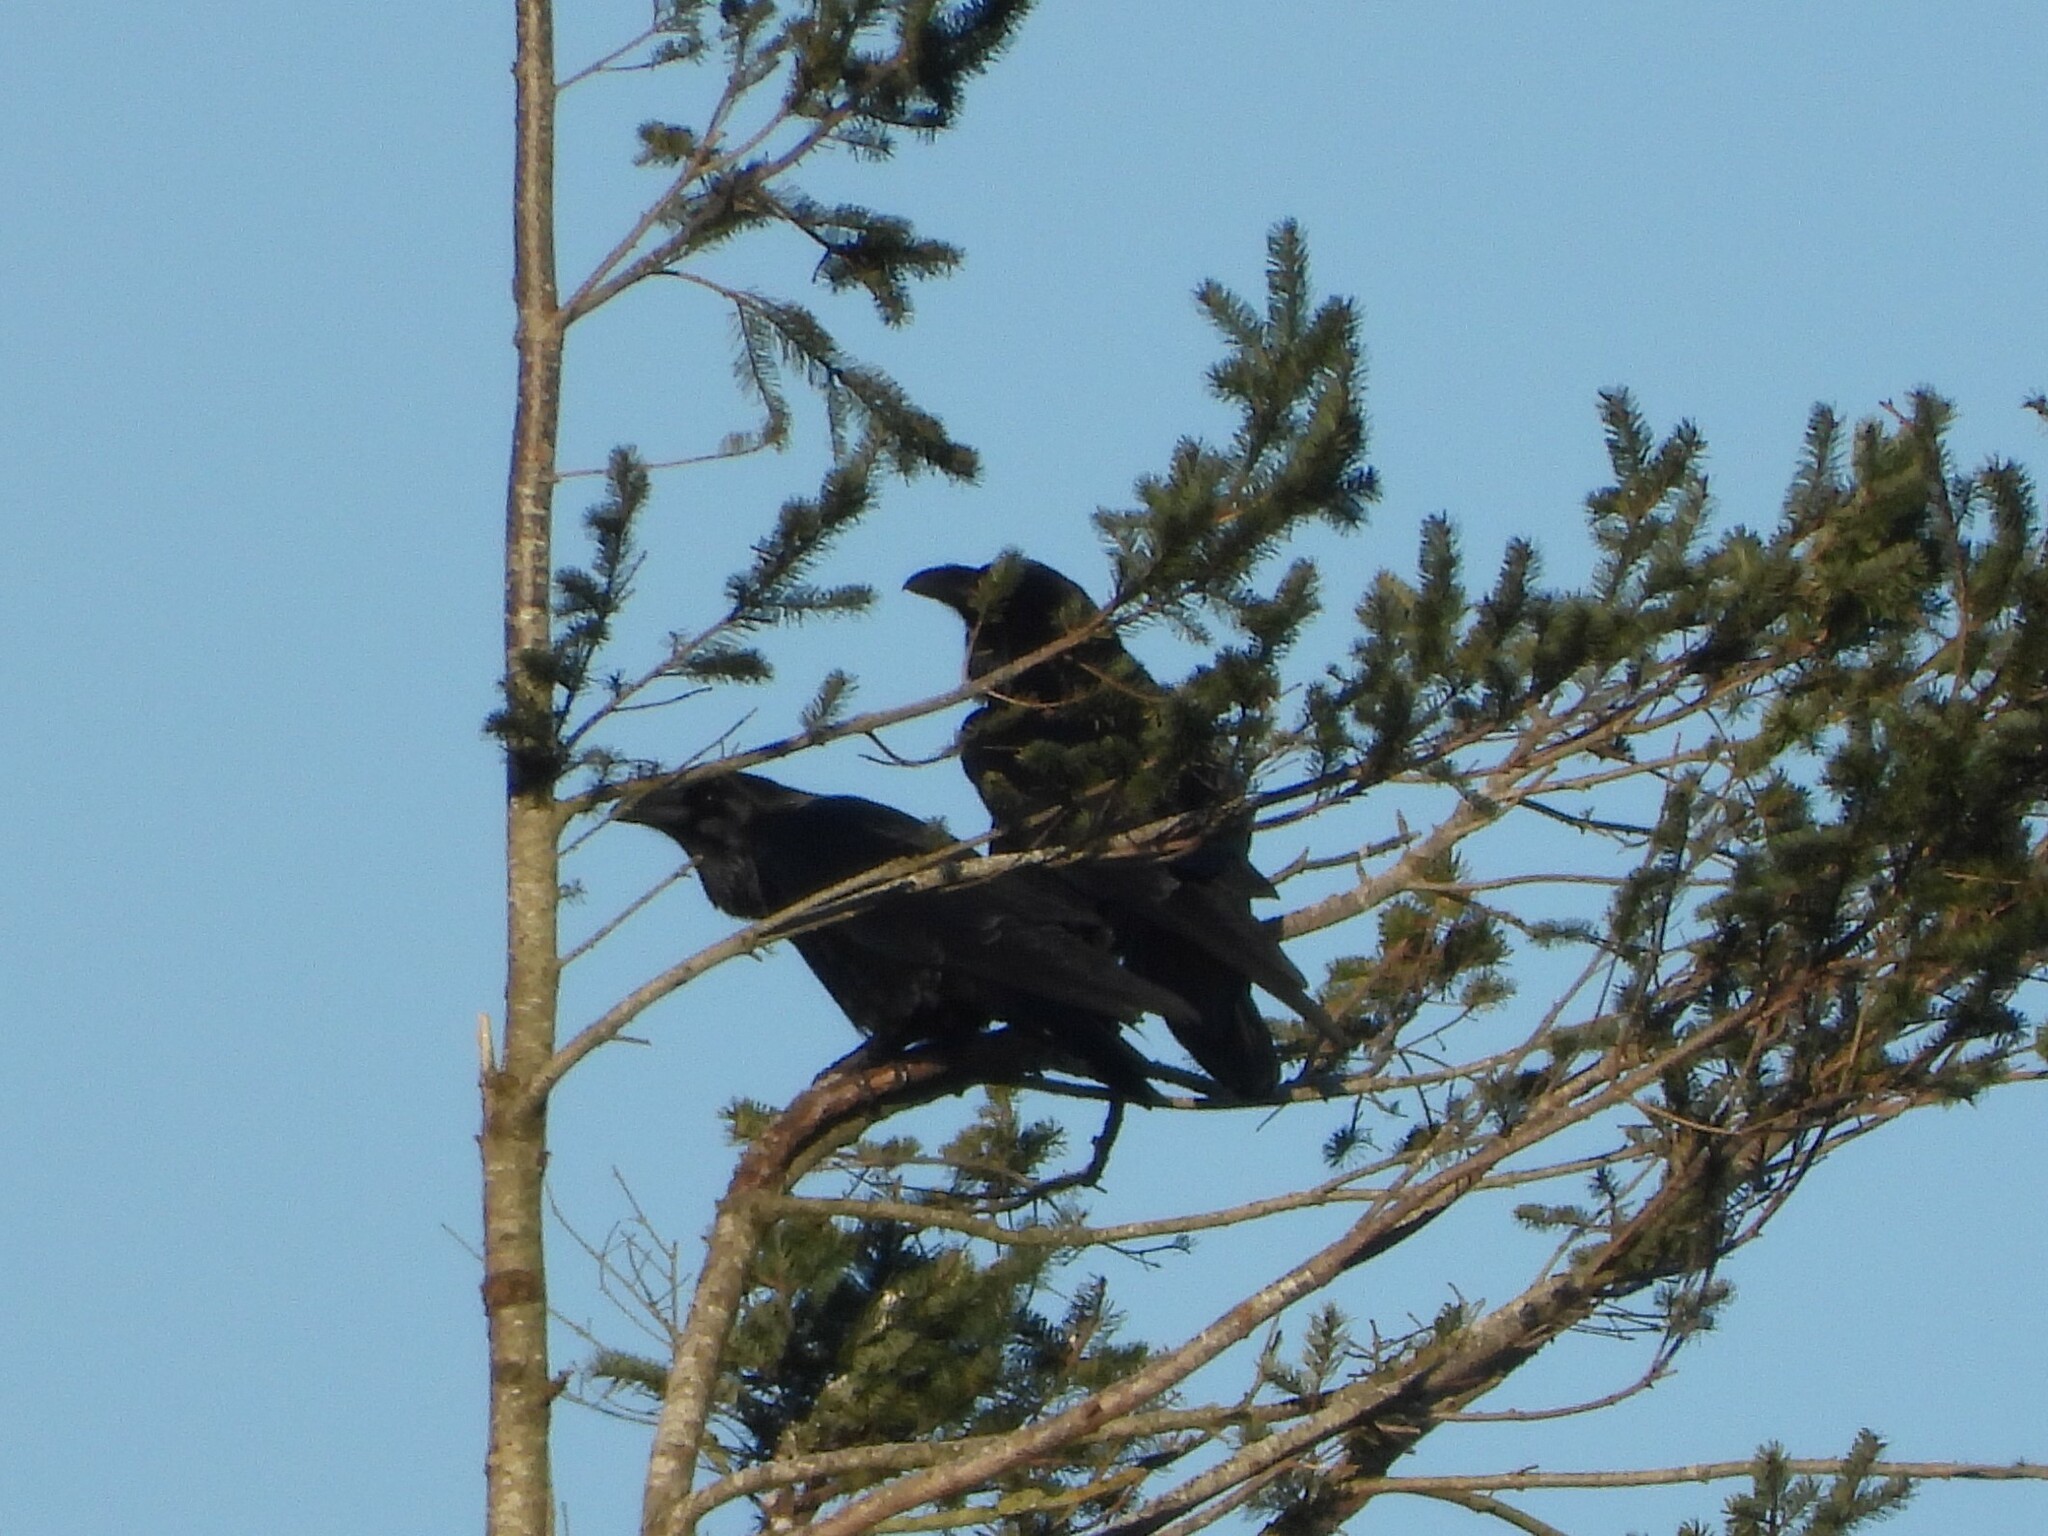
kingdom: Animalia
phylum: Chordata
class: Aves
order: Passeriformes
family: Corvidae
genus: Corvus
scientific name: Corvus corax
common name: Common raven
